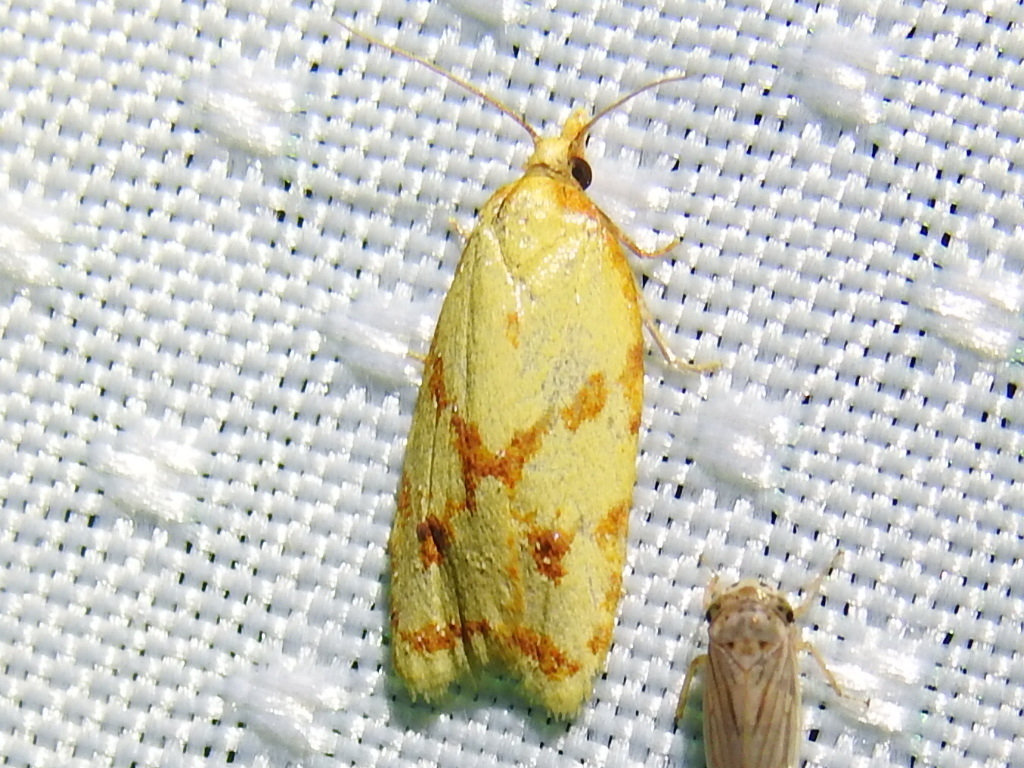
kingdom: Animalia
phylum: Arthropoda
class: Insecta
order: Lepidoptera
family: Tortricidae
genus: Sparganothis
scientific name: Sparganothis sulfureana
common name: Sparganothis fruitworm moth
